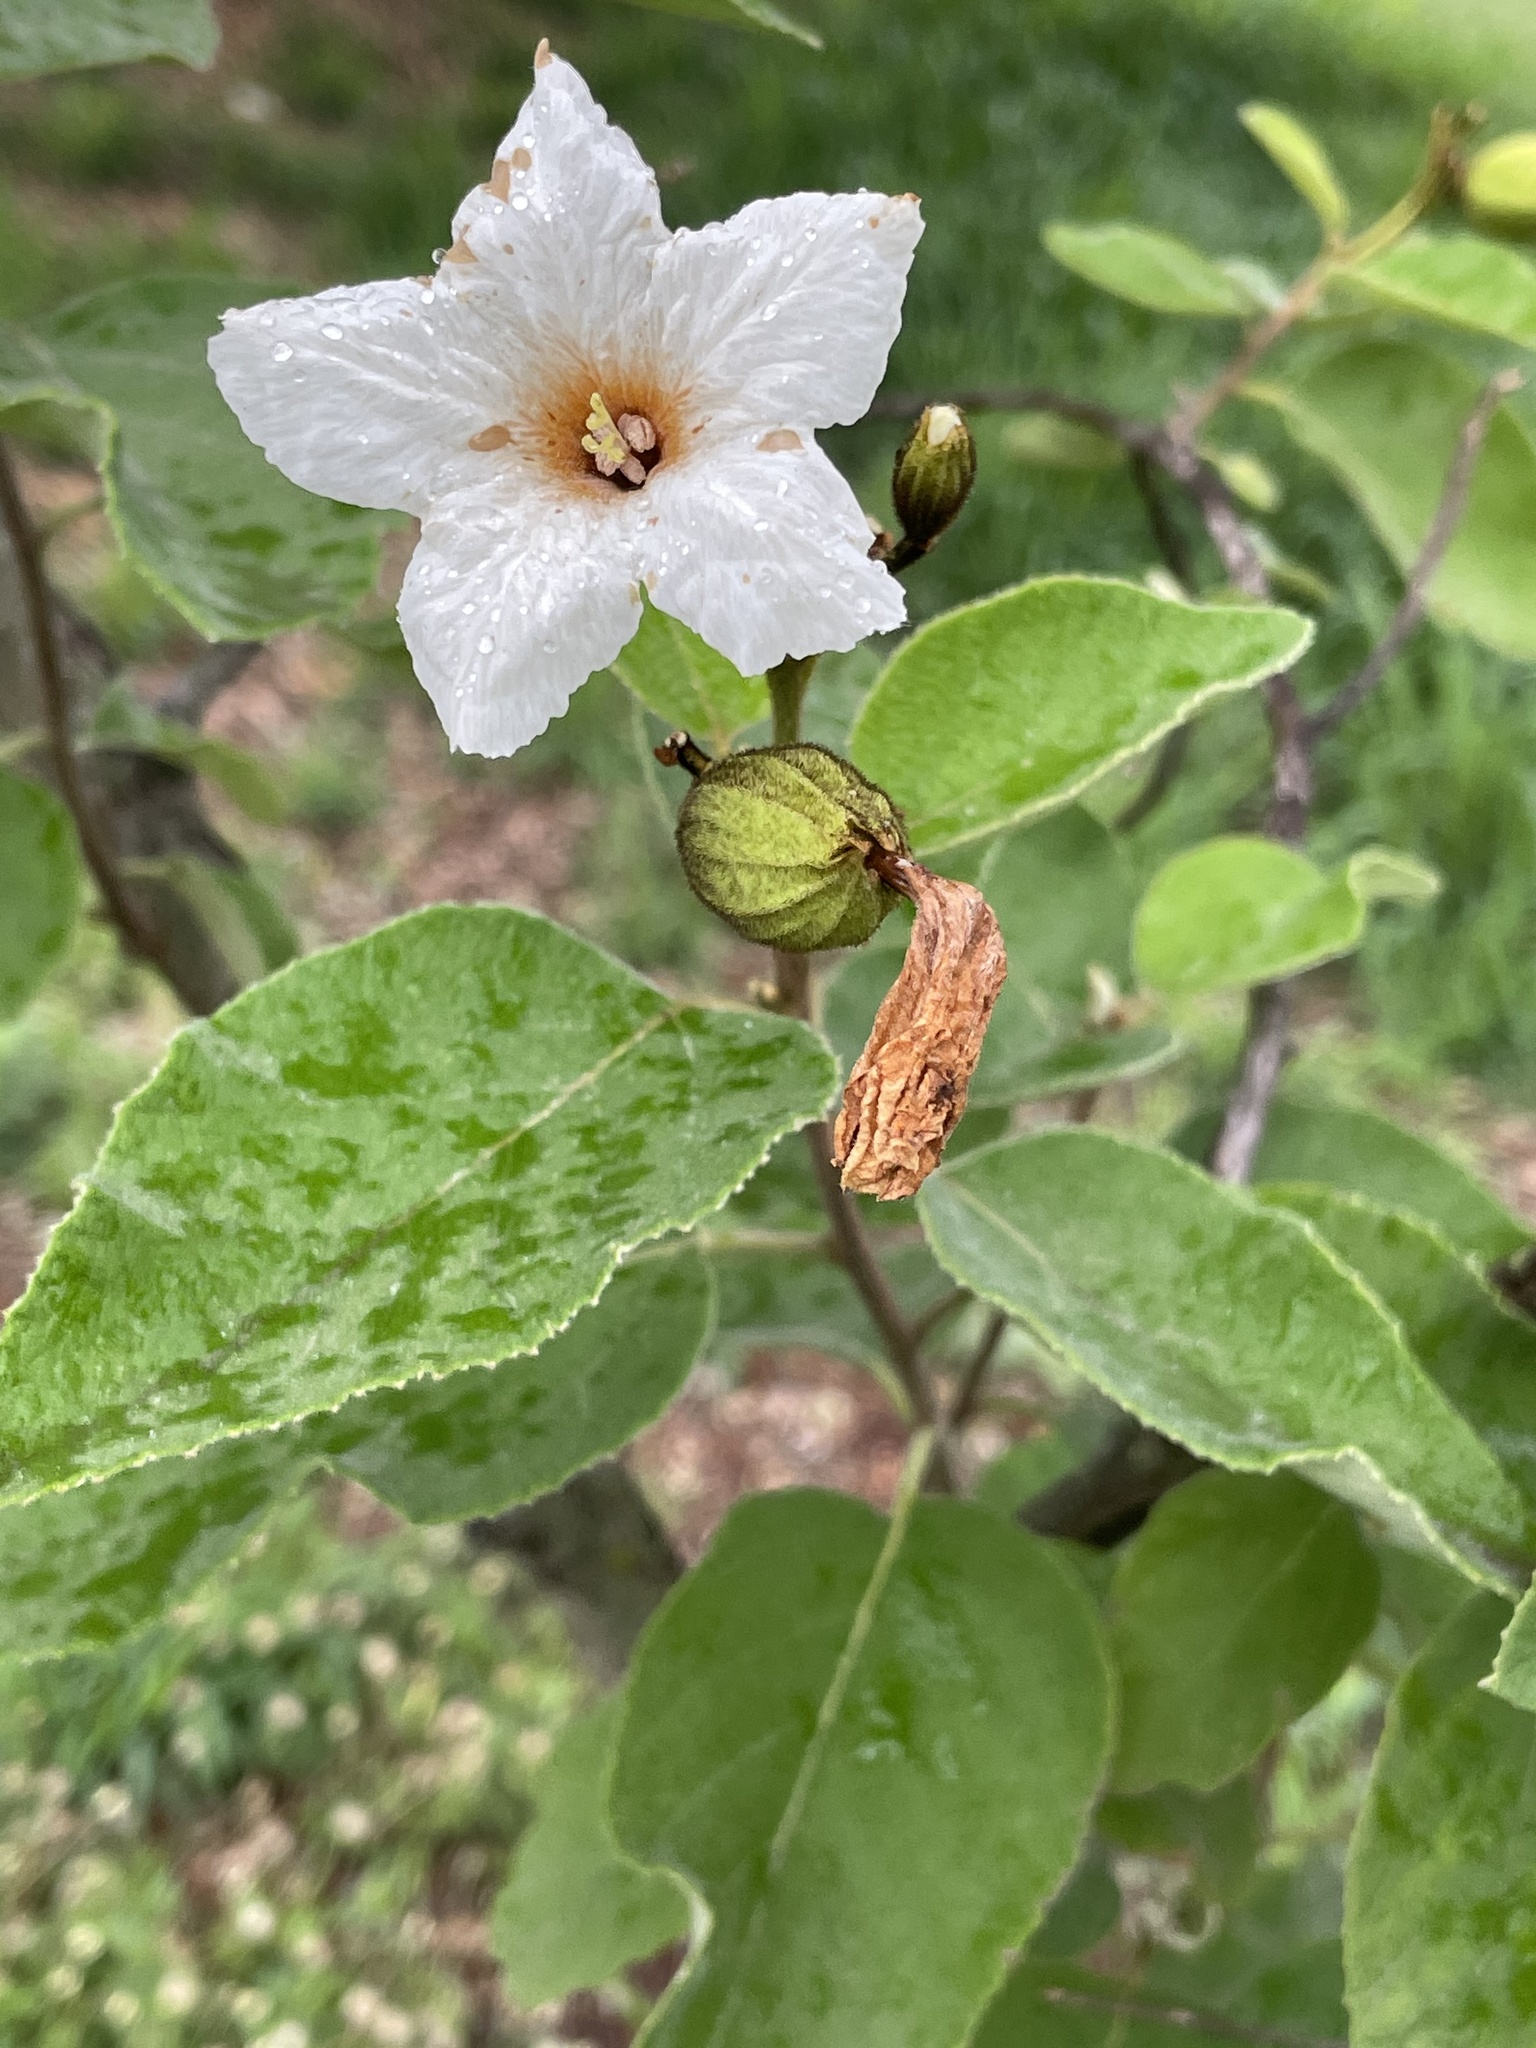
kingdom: Plantae
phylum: Tracheophyta
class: Magnoliopsida
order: Boraginales
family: Cordiaceae
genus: Cordia
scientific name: Cordia boissieri
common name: Mexican-olive
